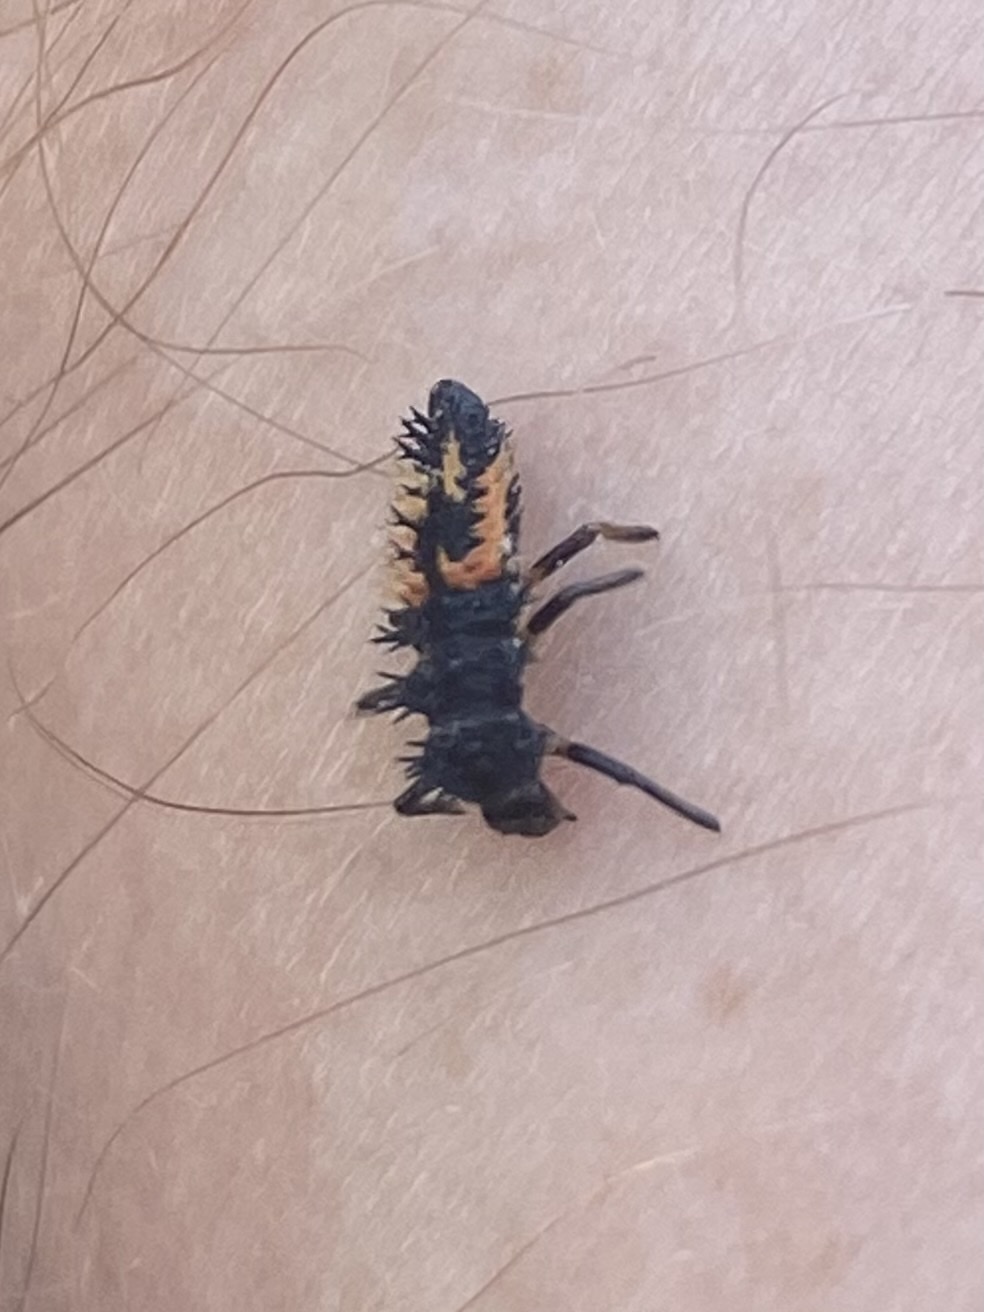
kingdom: Animalia
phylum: Arthropoda
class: Insecta
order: Coleoptera
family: Coccinellidae
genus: Harmonia
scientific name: Harmonia axyridis
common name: Harlequin ladybird
